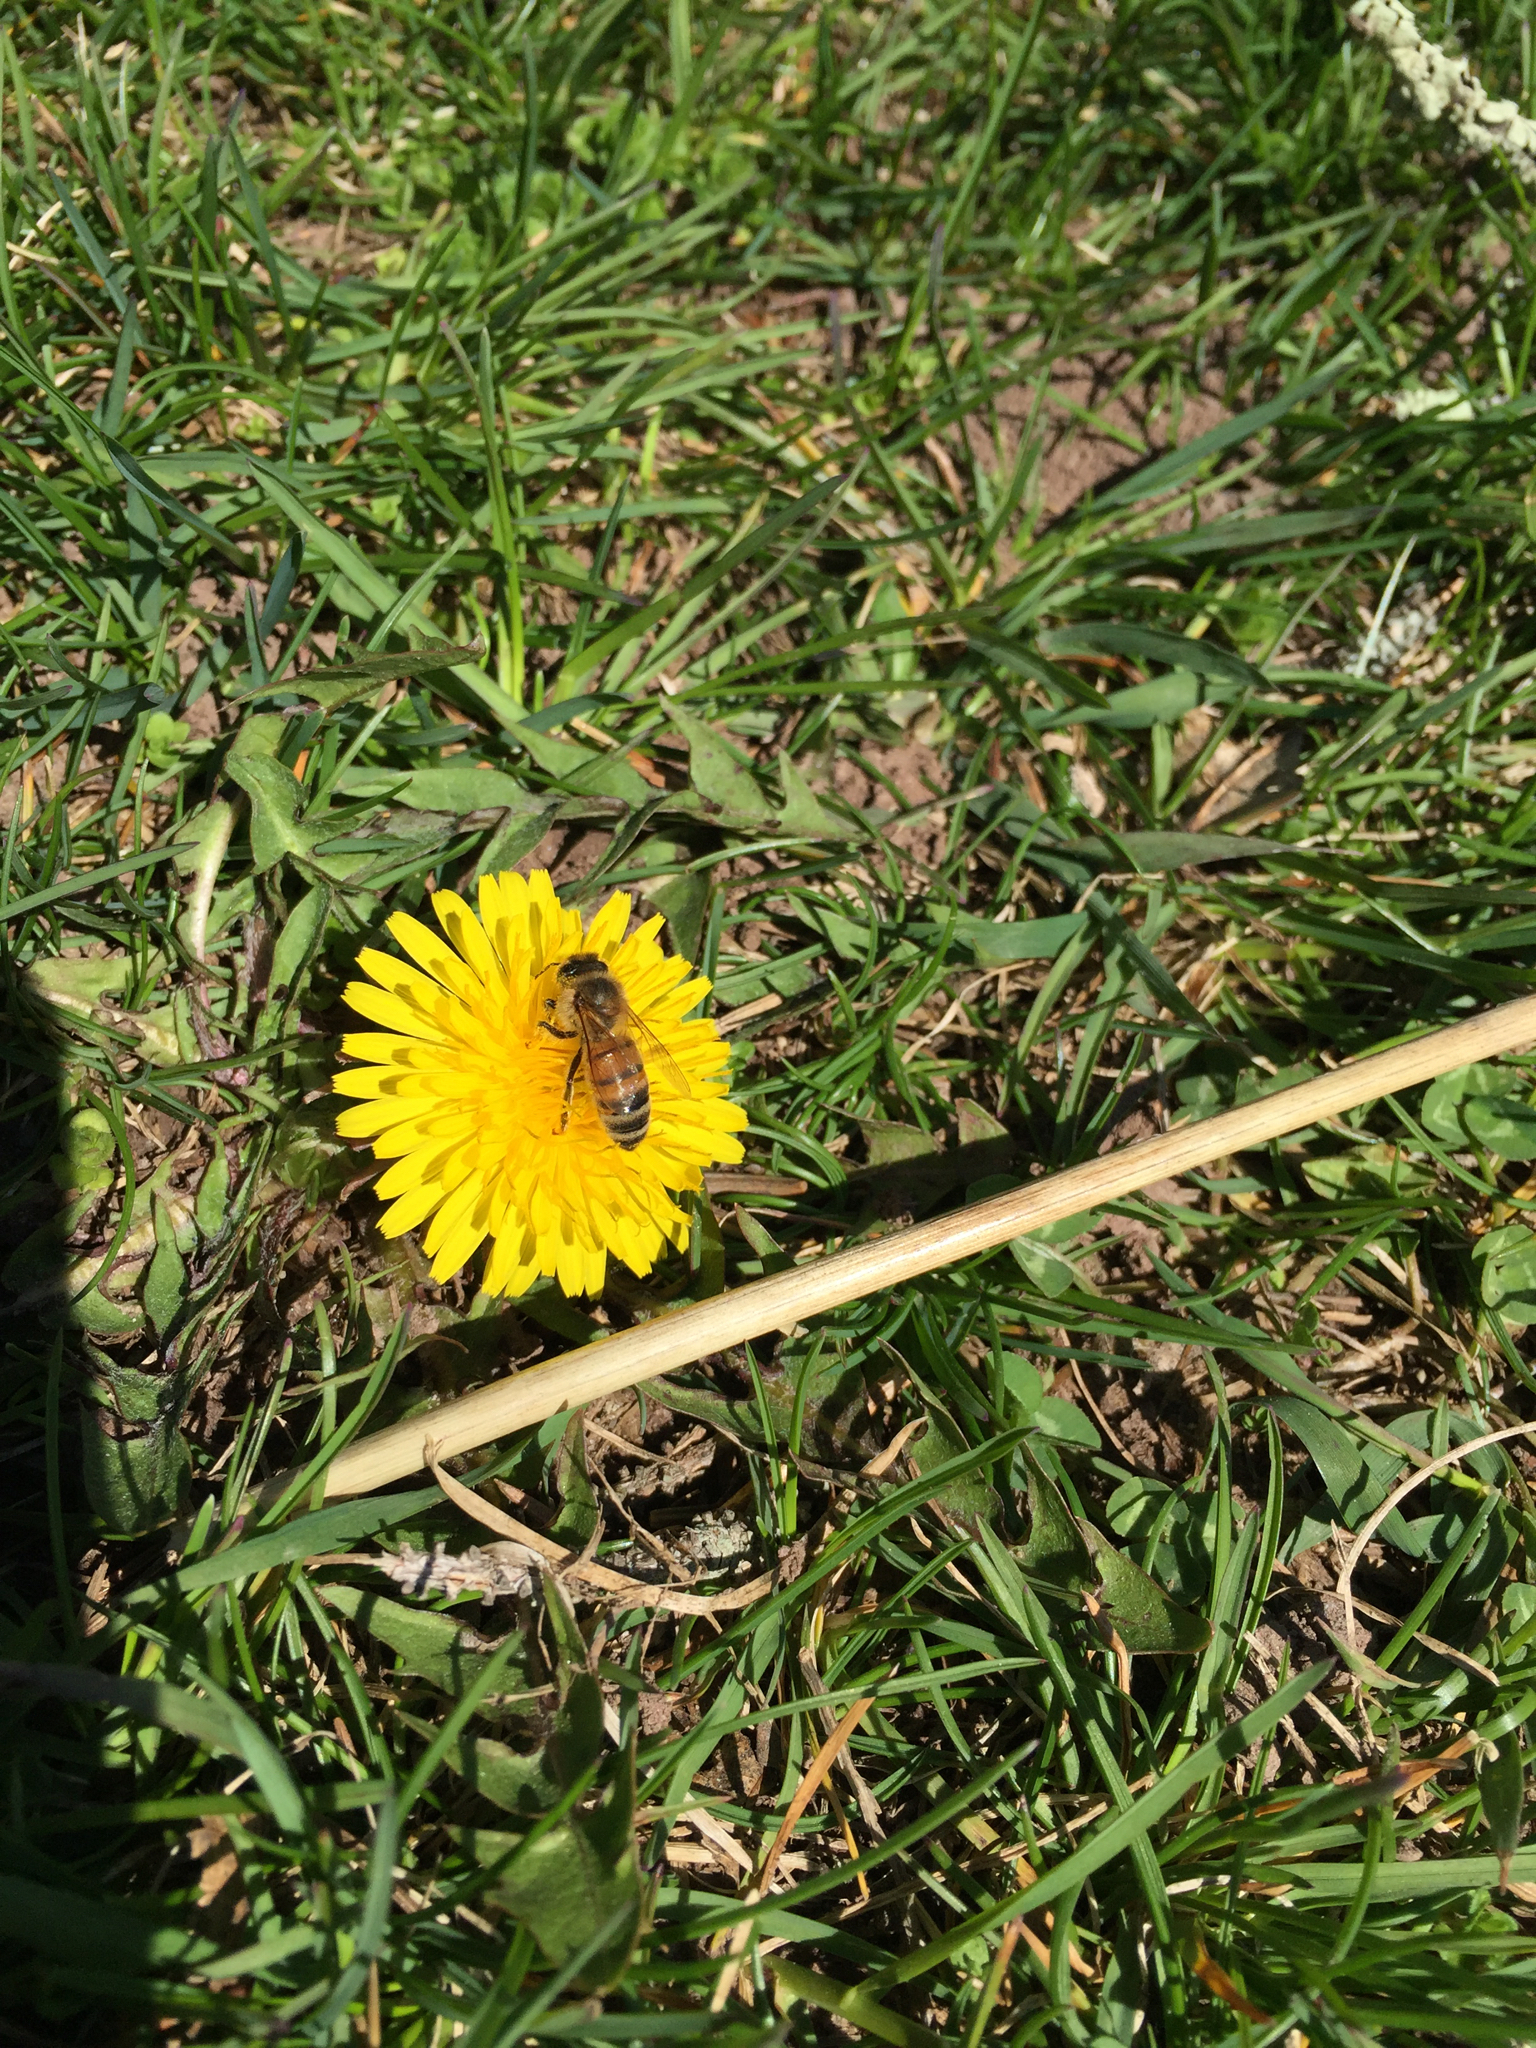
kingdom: Animalia
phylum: Arthropoda
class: Insecta
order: Hymenoptera
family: Apidae
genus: Apis
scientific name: Apis mellifera
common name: Honey bee
